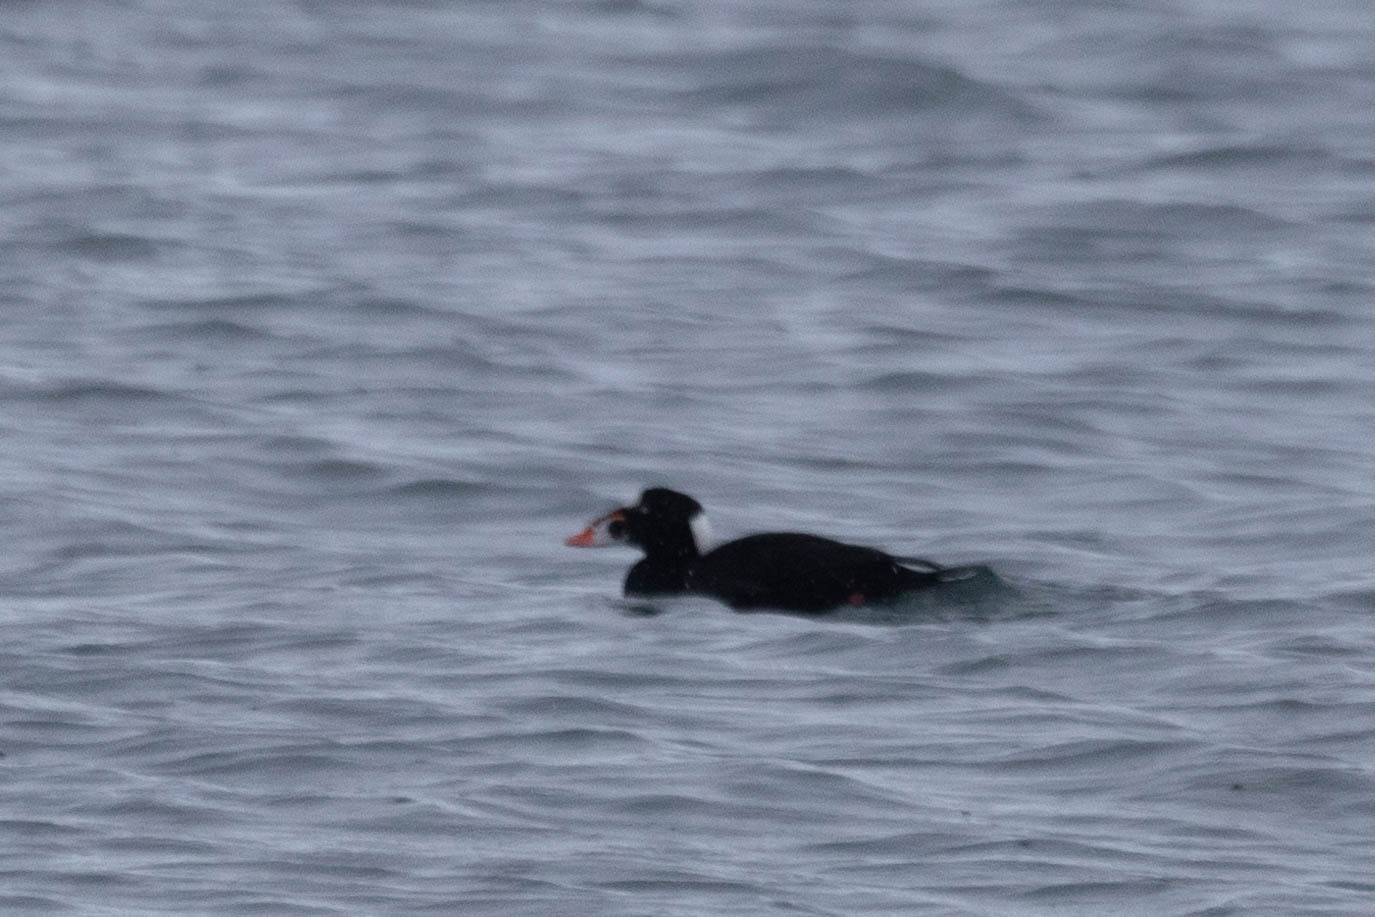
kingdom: Animalia
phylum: Chordata
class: Aves
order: Anseriformes
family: Anatidae
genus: Melanitta
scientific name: Melanitta perspicillata
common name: Surf scoter
